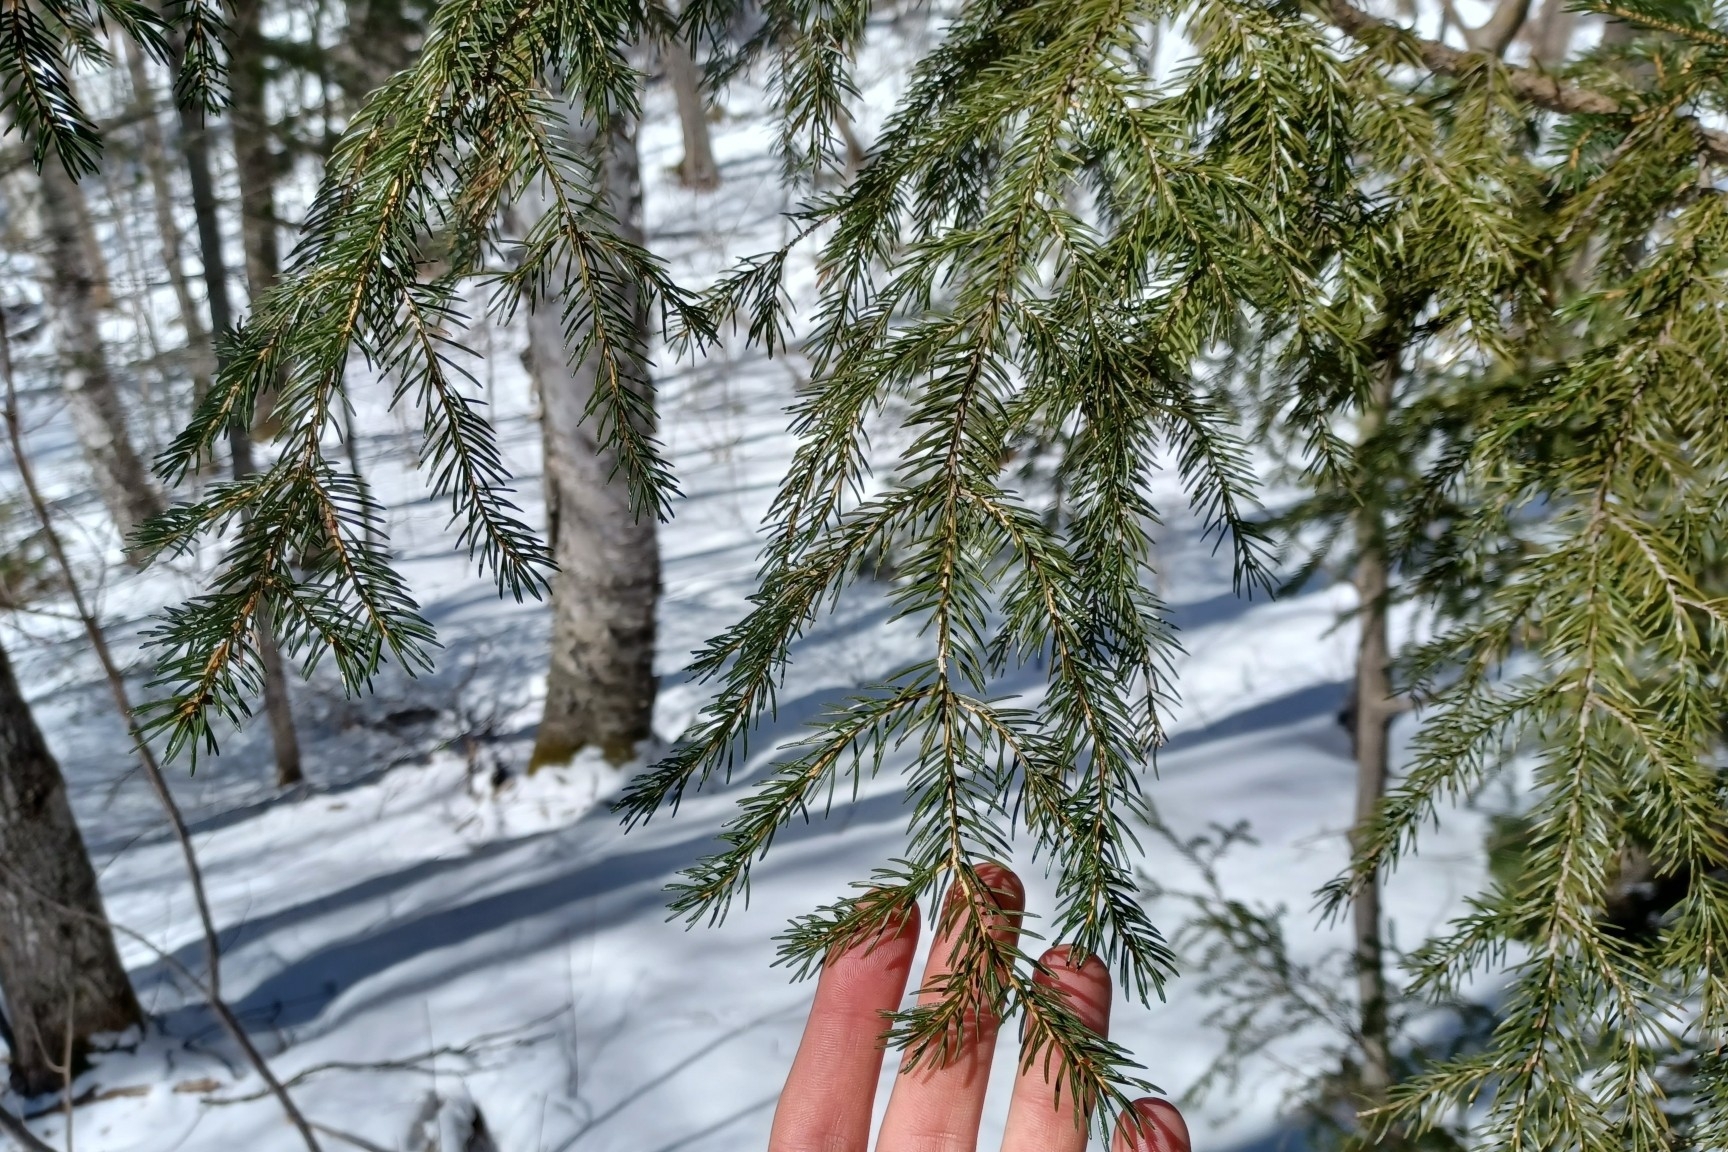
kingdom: Plantae
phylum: Tracheophyta
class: Pinopsida
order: Pinales
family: Pinaceae
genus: Picea
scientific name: Picea rubens
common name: Red spruce
